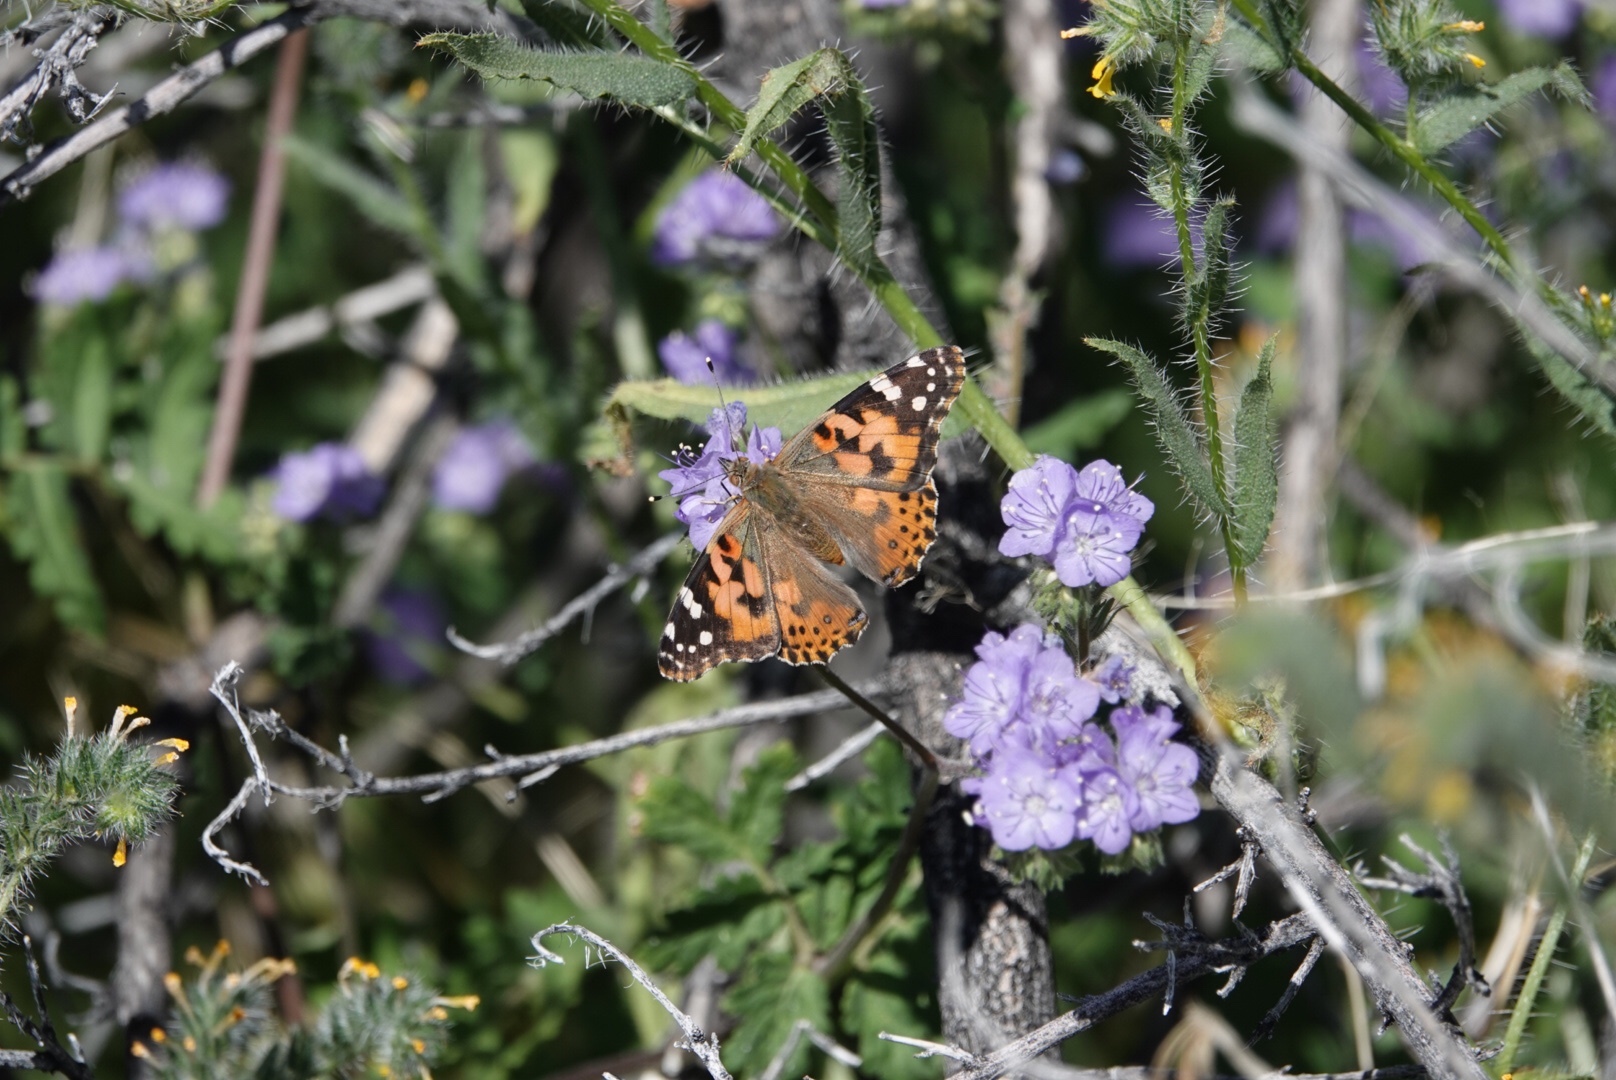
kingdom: Animalia
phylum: Arthropoda
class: Insecta
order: Lepidoptera
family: Nymphalidae
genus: Vanessa
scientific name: Vanessa cardui
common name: Painted lady
